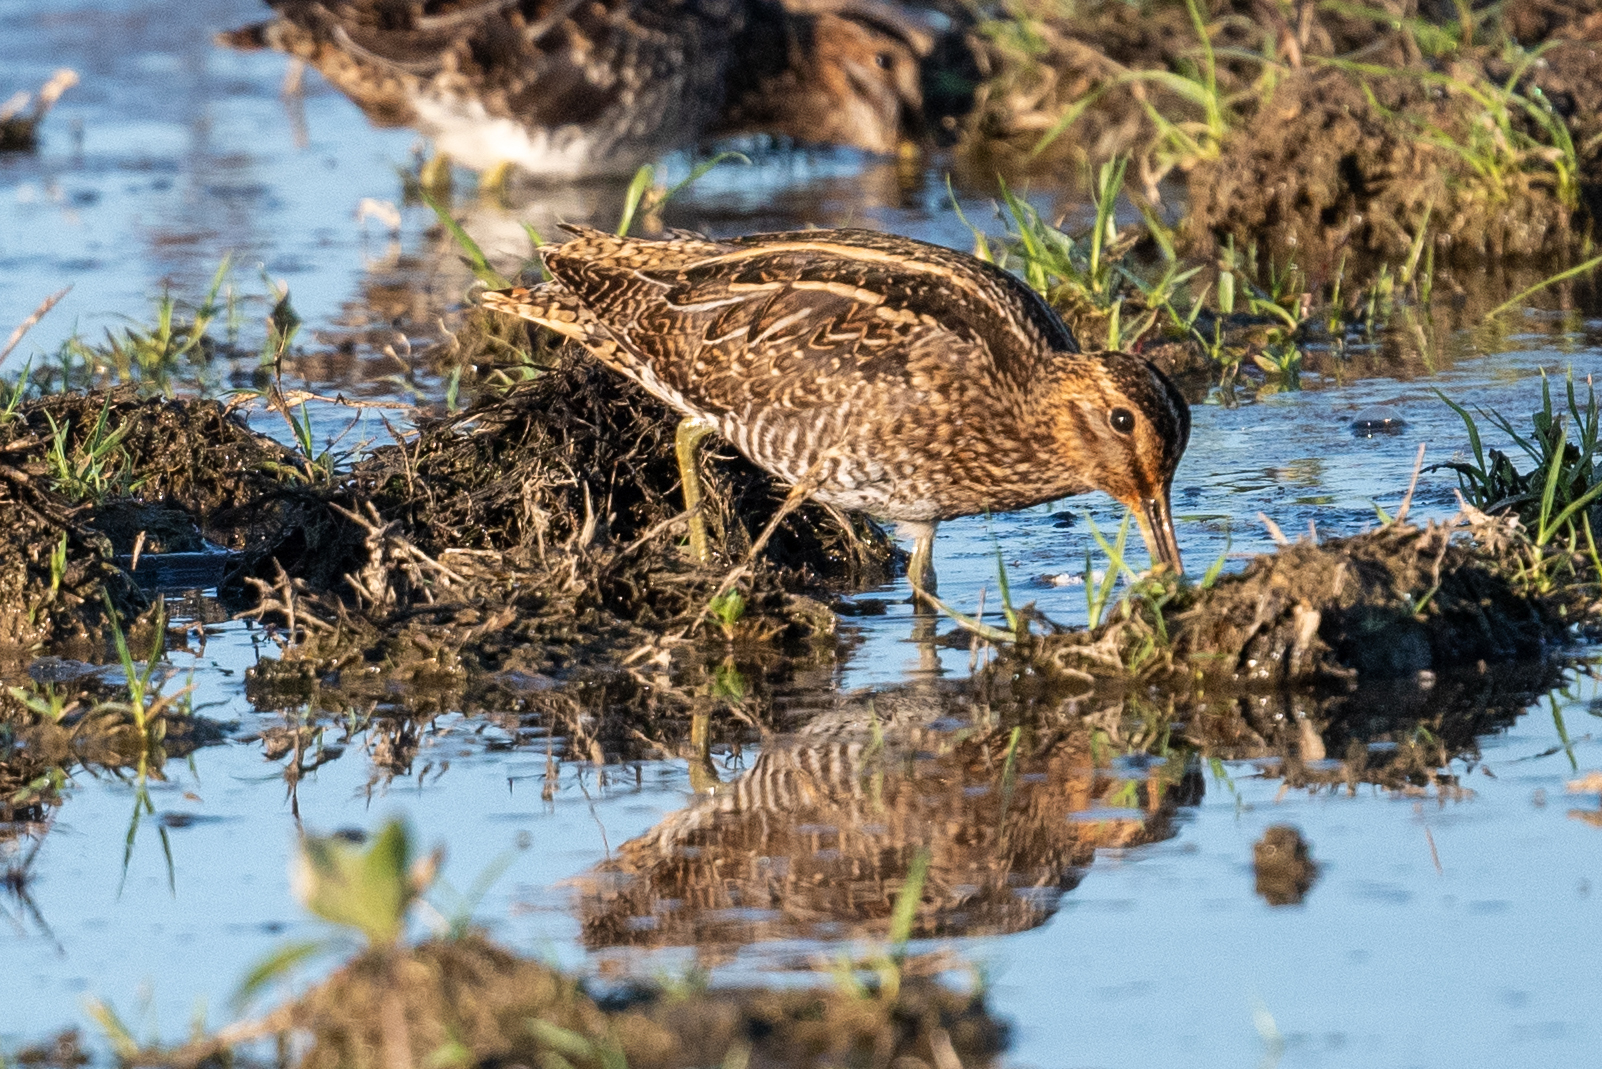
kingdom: Animalia
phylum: Chordata
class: Aves
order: Charadriiformes
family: Scolopacidae
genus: Gallinago
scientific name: Gallinago delicata
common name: Wilson's snipe
